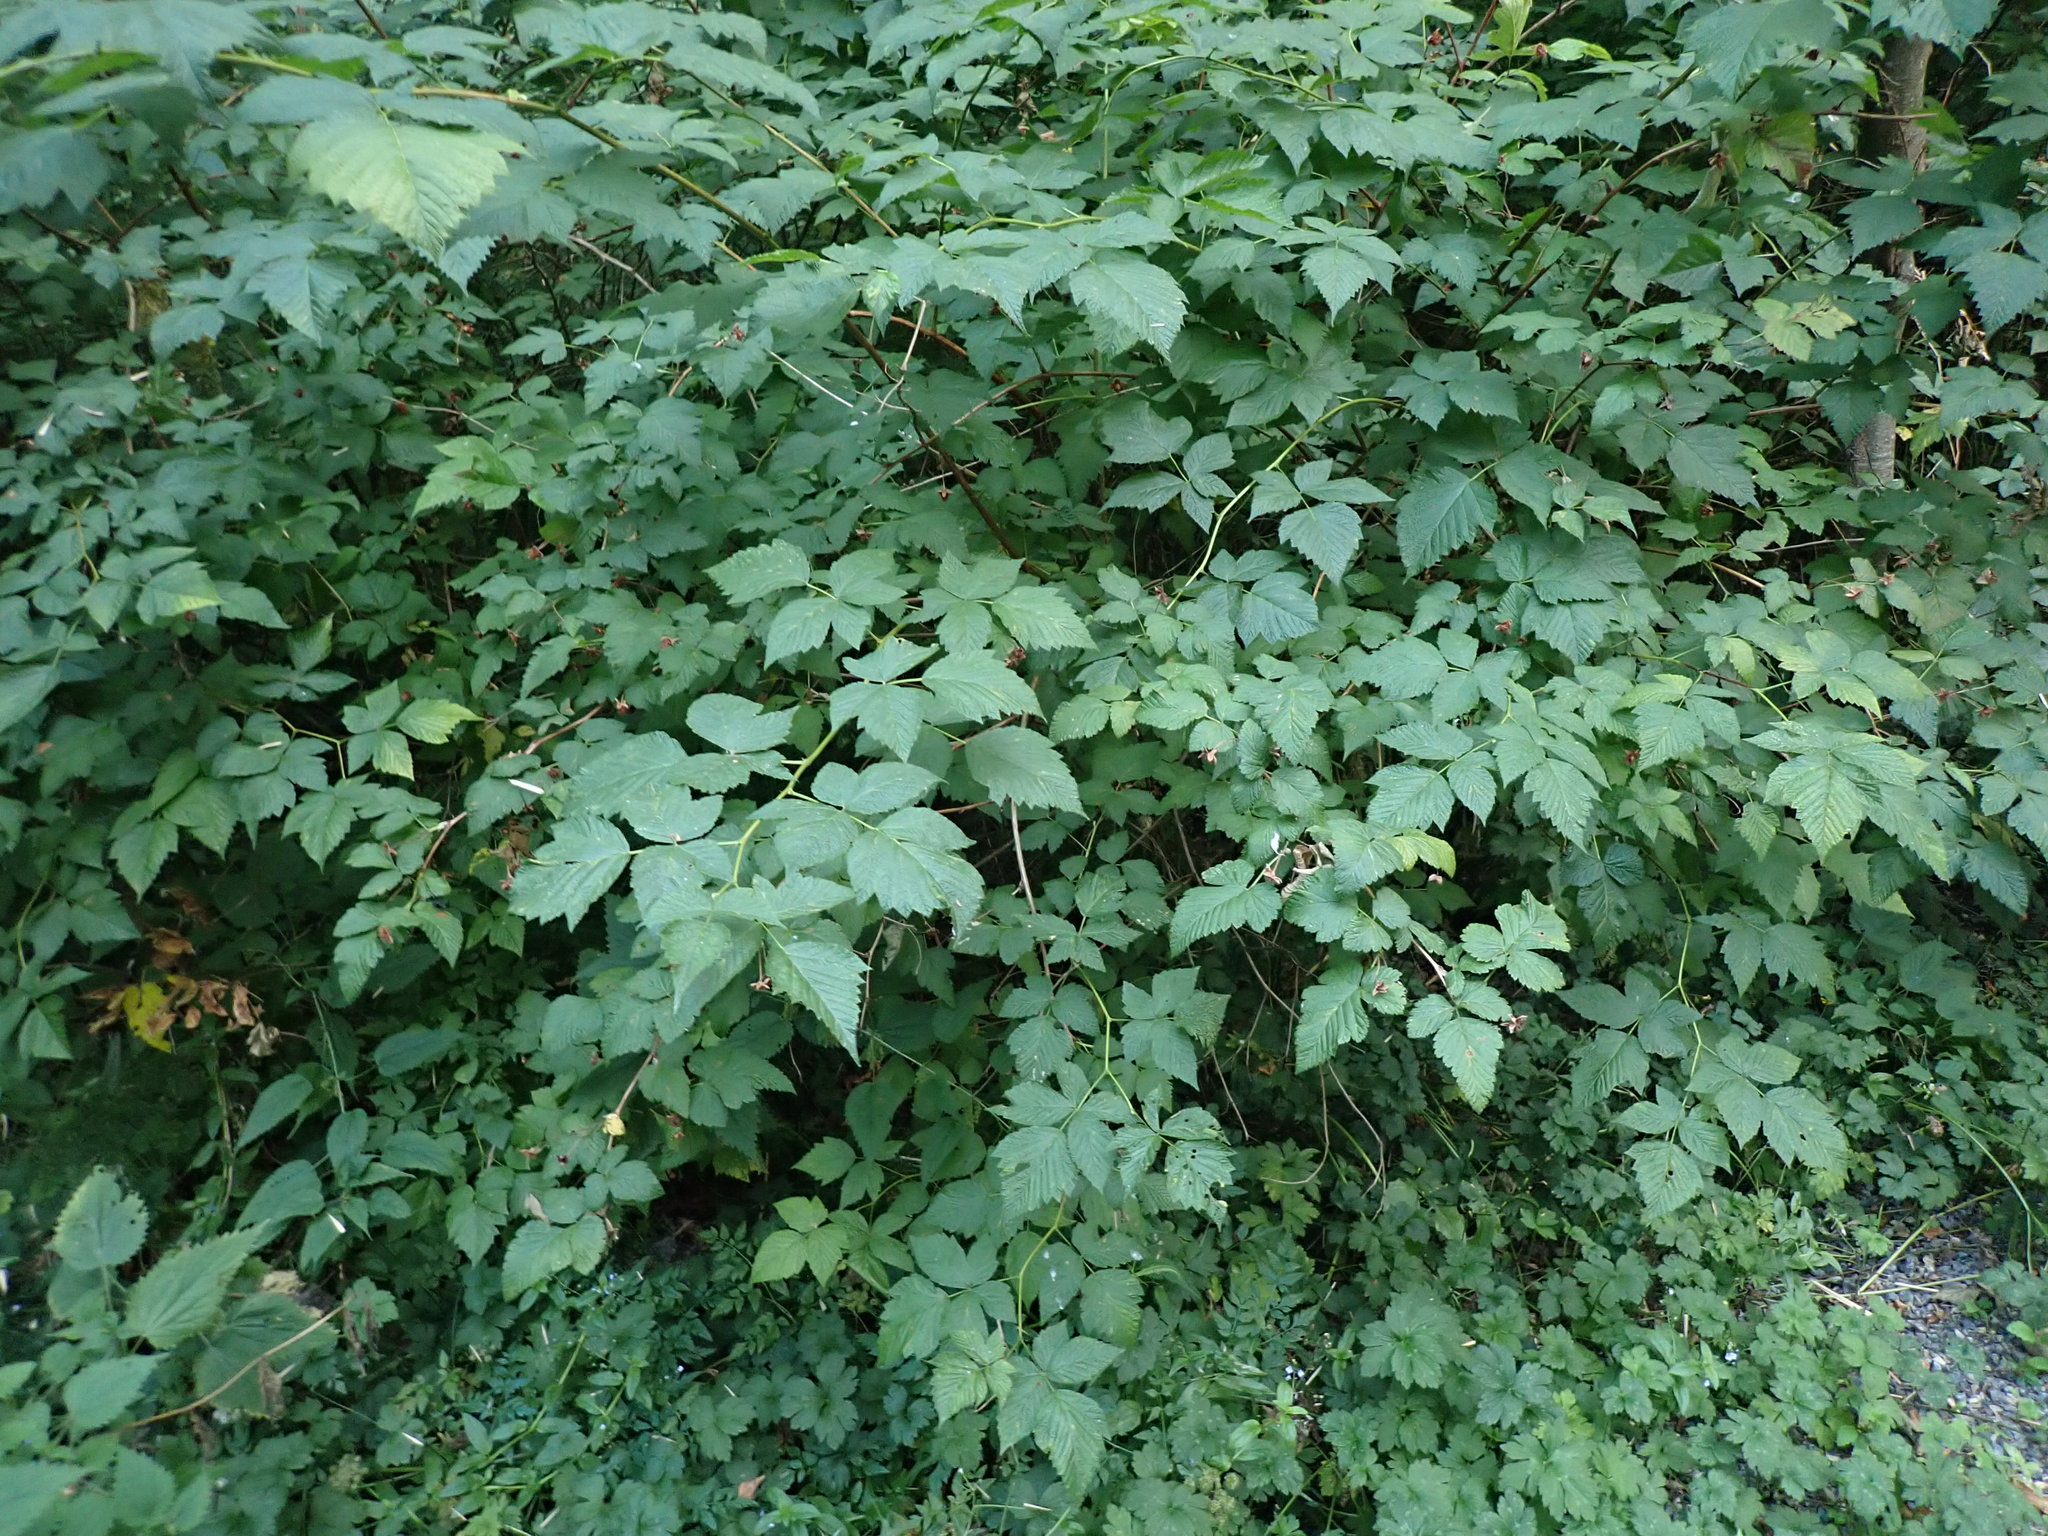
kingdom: Plantae
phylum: Tracheophyta
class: Magnoliopsida
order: Rosales
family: Rosaceae
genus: Rubus
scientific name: Rubus spectabilis
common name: Salmonberry
